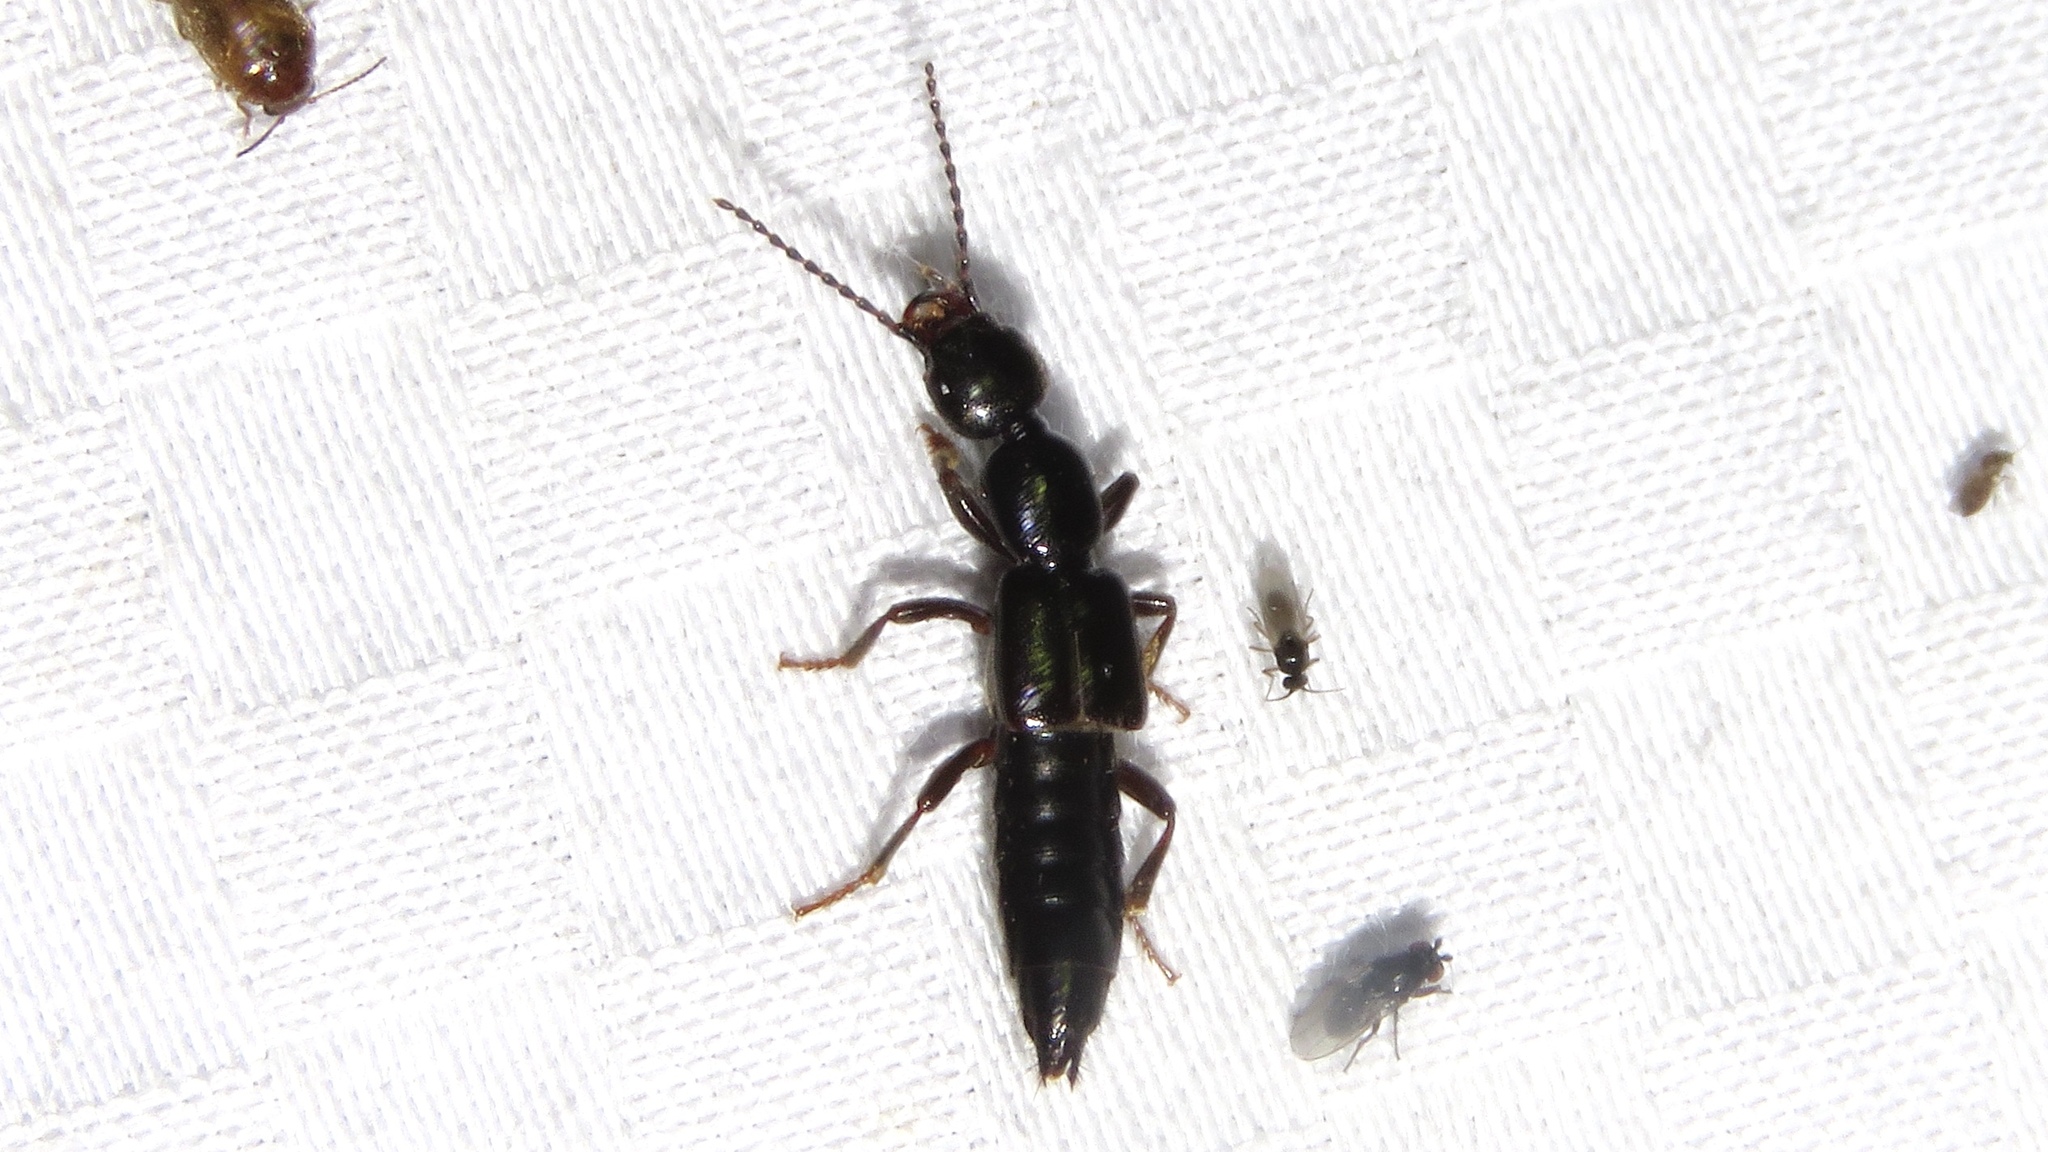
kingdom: Animalia
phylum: Arthropoda
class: Insecta
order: Coleoptera
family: Staphylinidae
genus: Lobrathium
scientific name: Lobrathium grande
